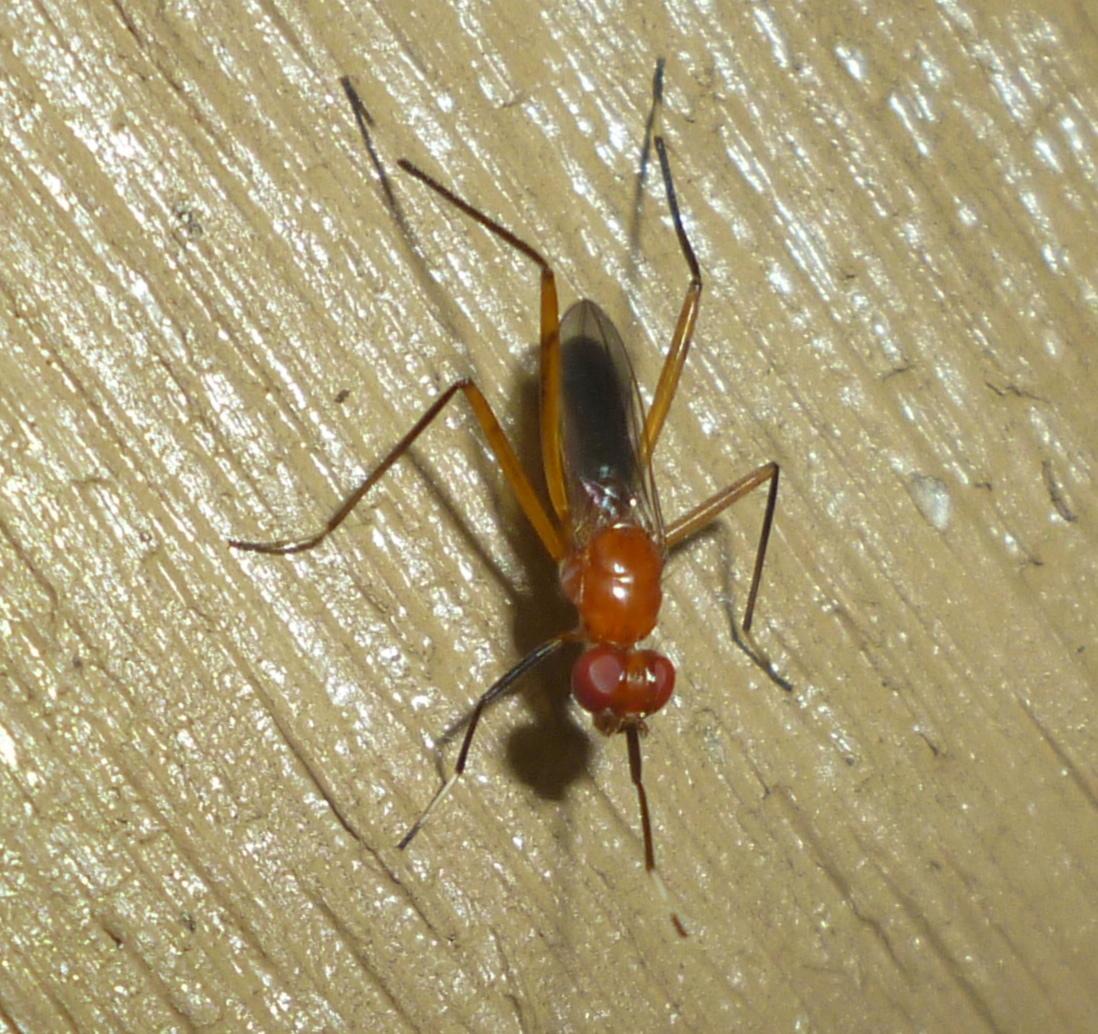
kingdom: Animalia
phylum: Arthropoda
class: Insecta
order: Diptera
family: Micropezidae
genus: Grallipeza
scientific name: Grallipeza nebulosa
